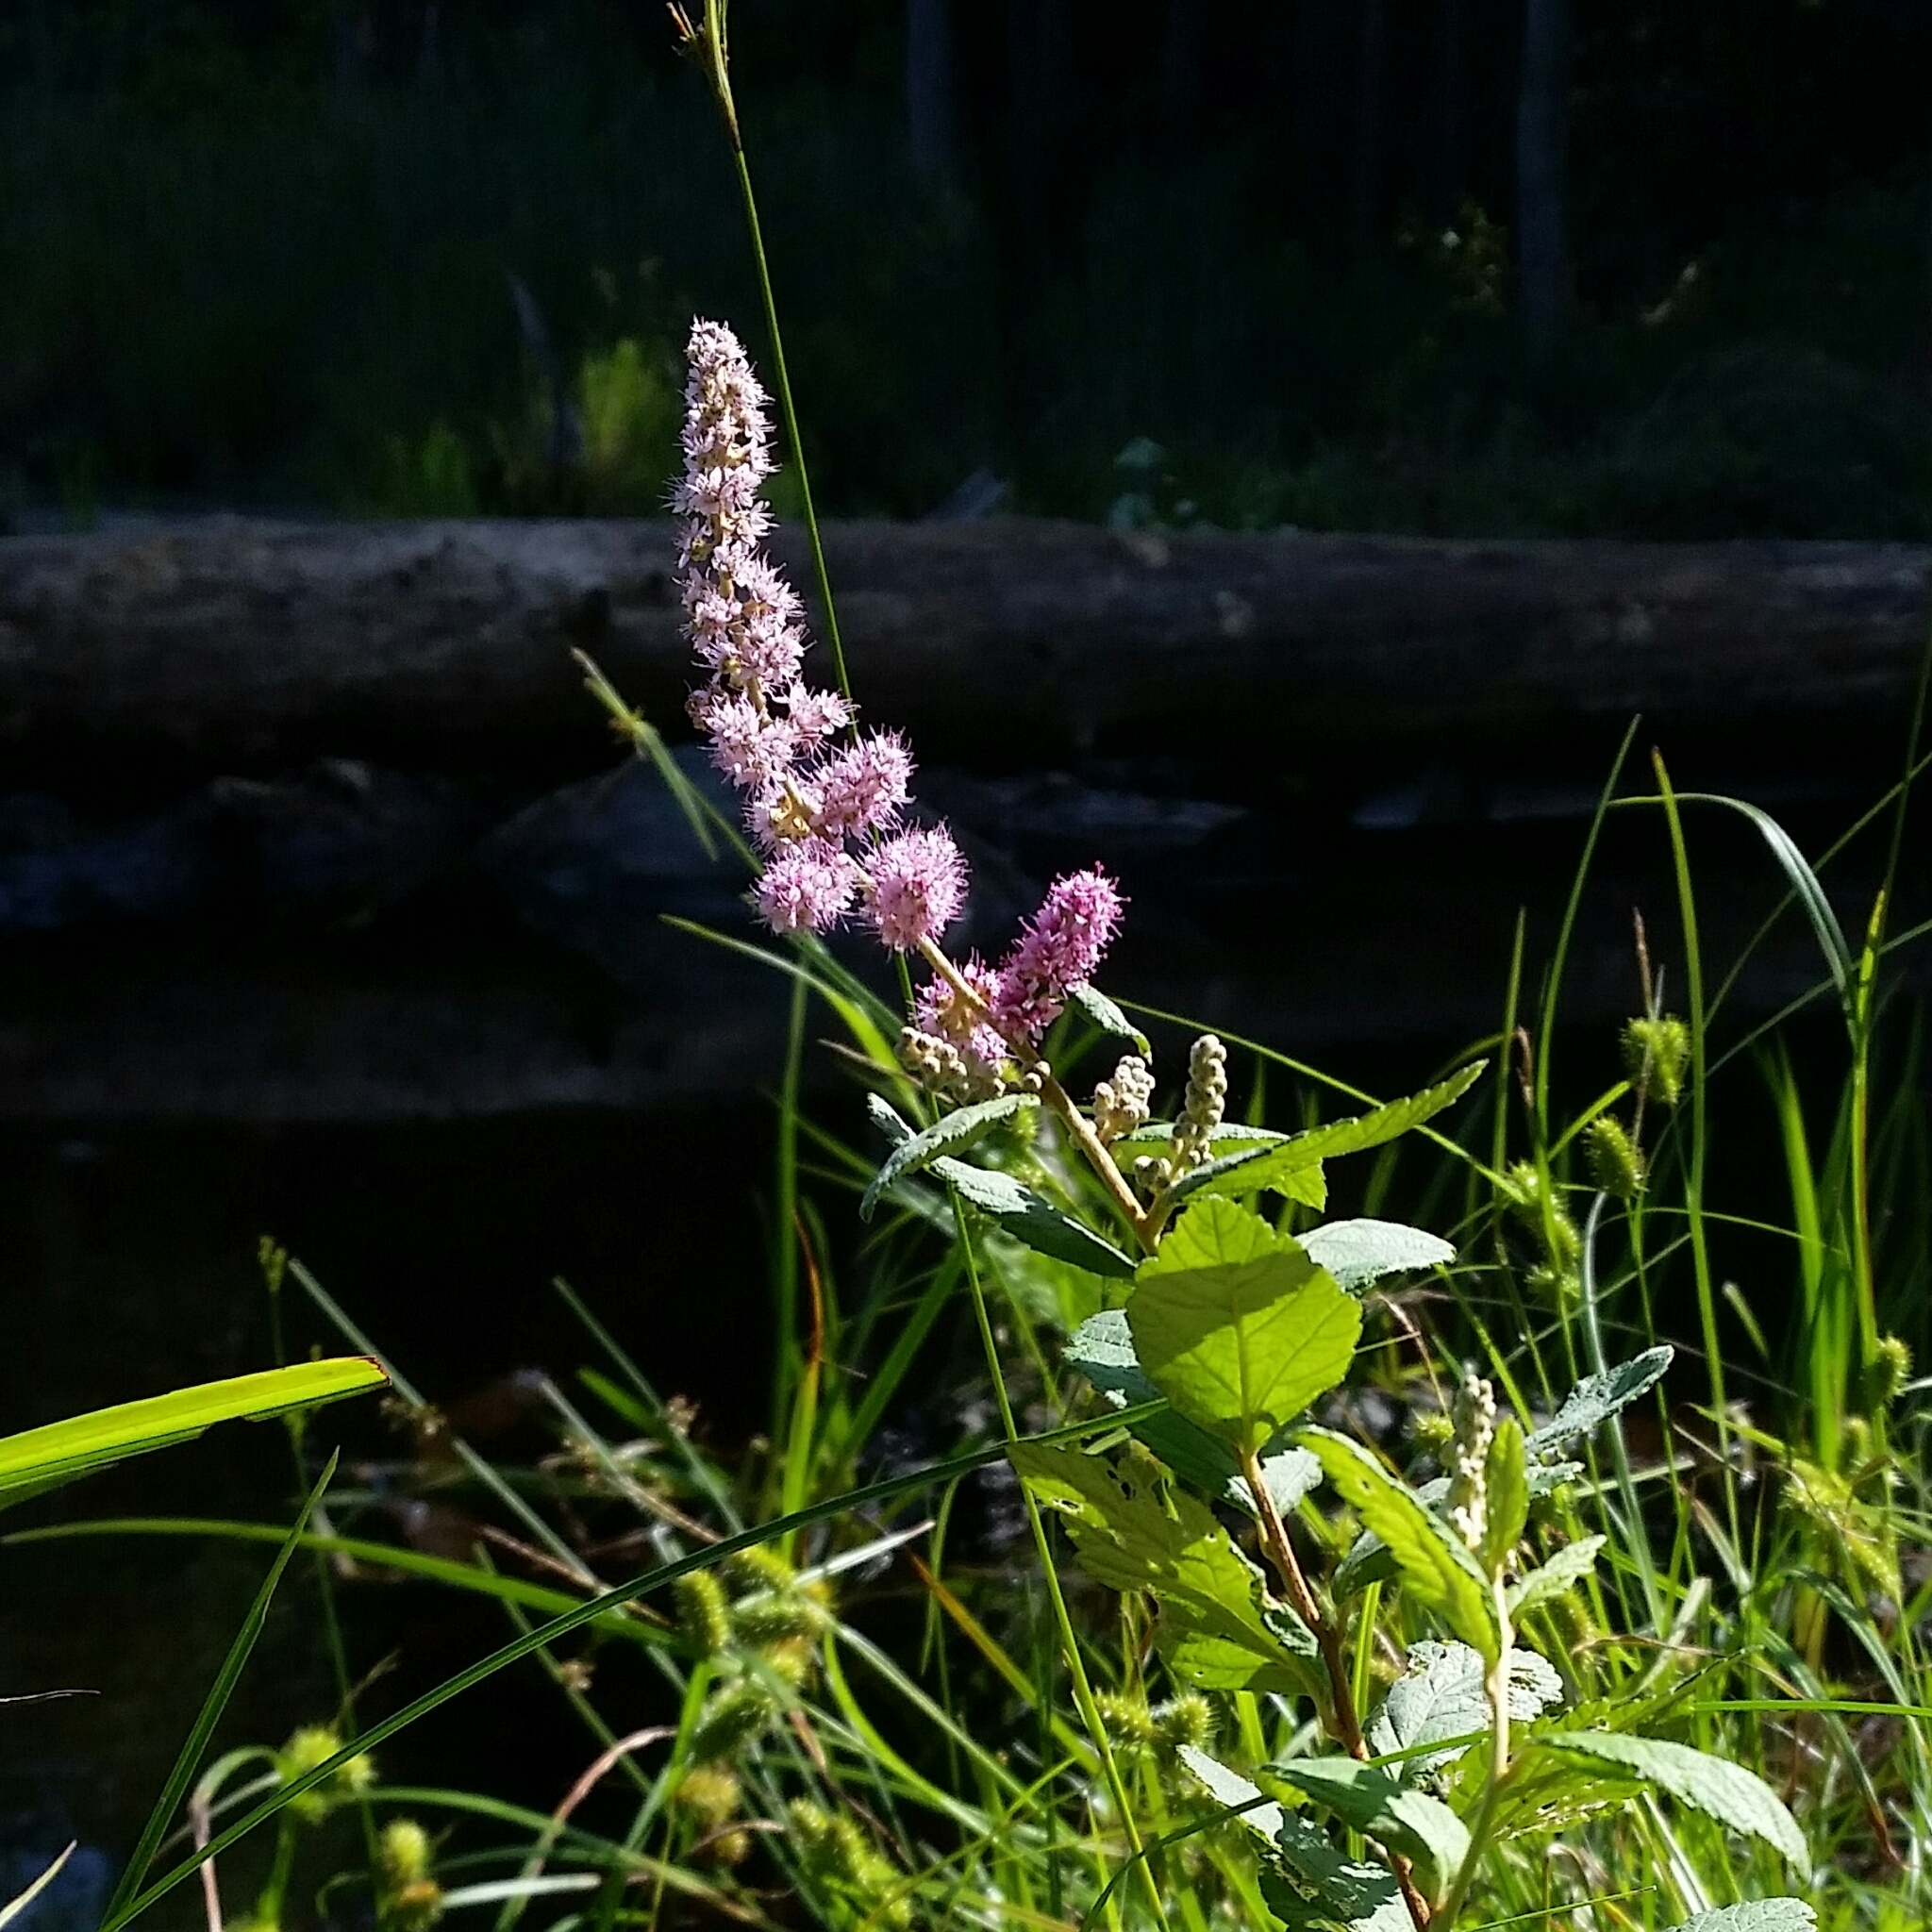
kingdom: Plantae
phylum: Tracheophyta
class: Magnoliopsida
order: Rosales
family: Rosaceae
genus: Spiraea
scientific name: Spiraea tomentosa
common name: Hardhack
